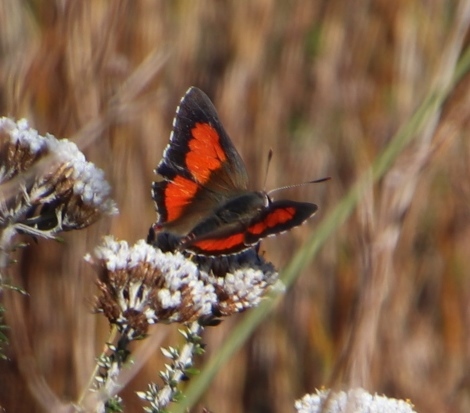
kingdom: Animalia
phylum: Arthropoda
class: Insecta
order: Lepidoptera
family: Lycaenidae
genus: Capys
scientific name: Capys alpheus
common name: Orange-banded protea butterfly
